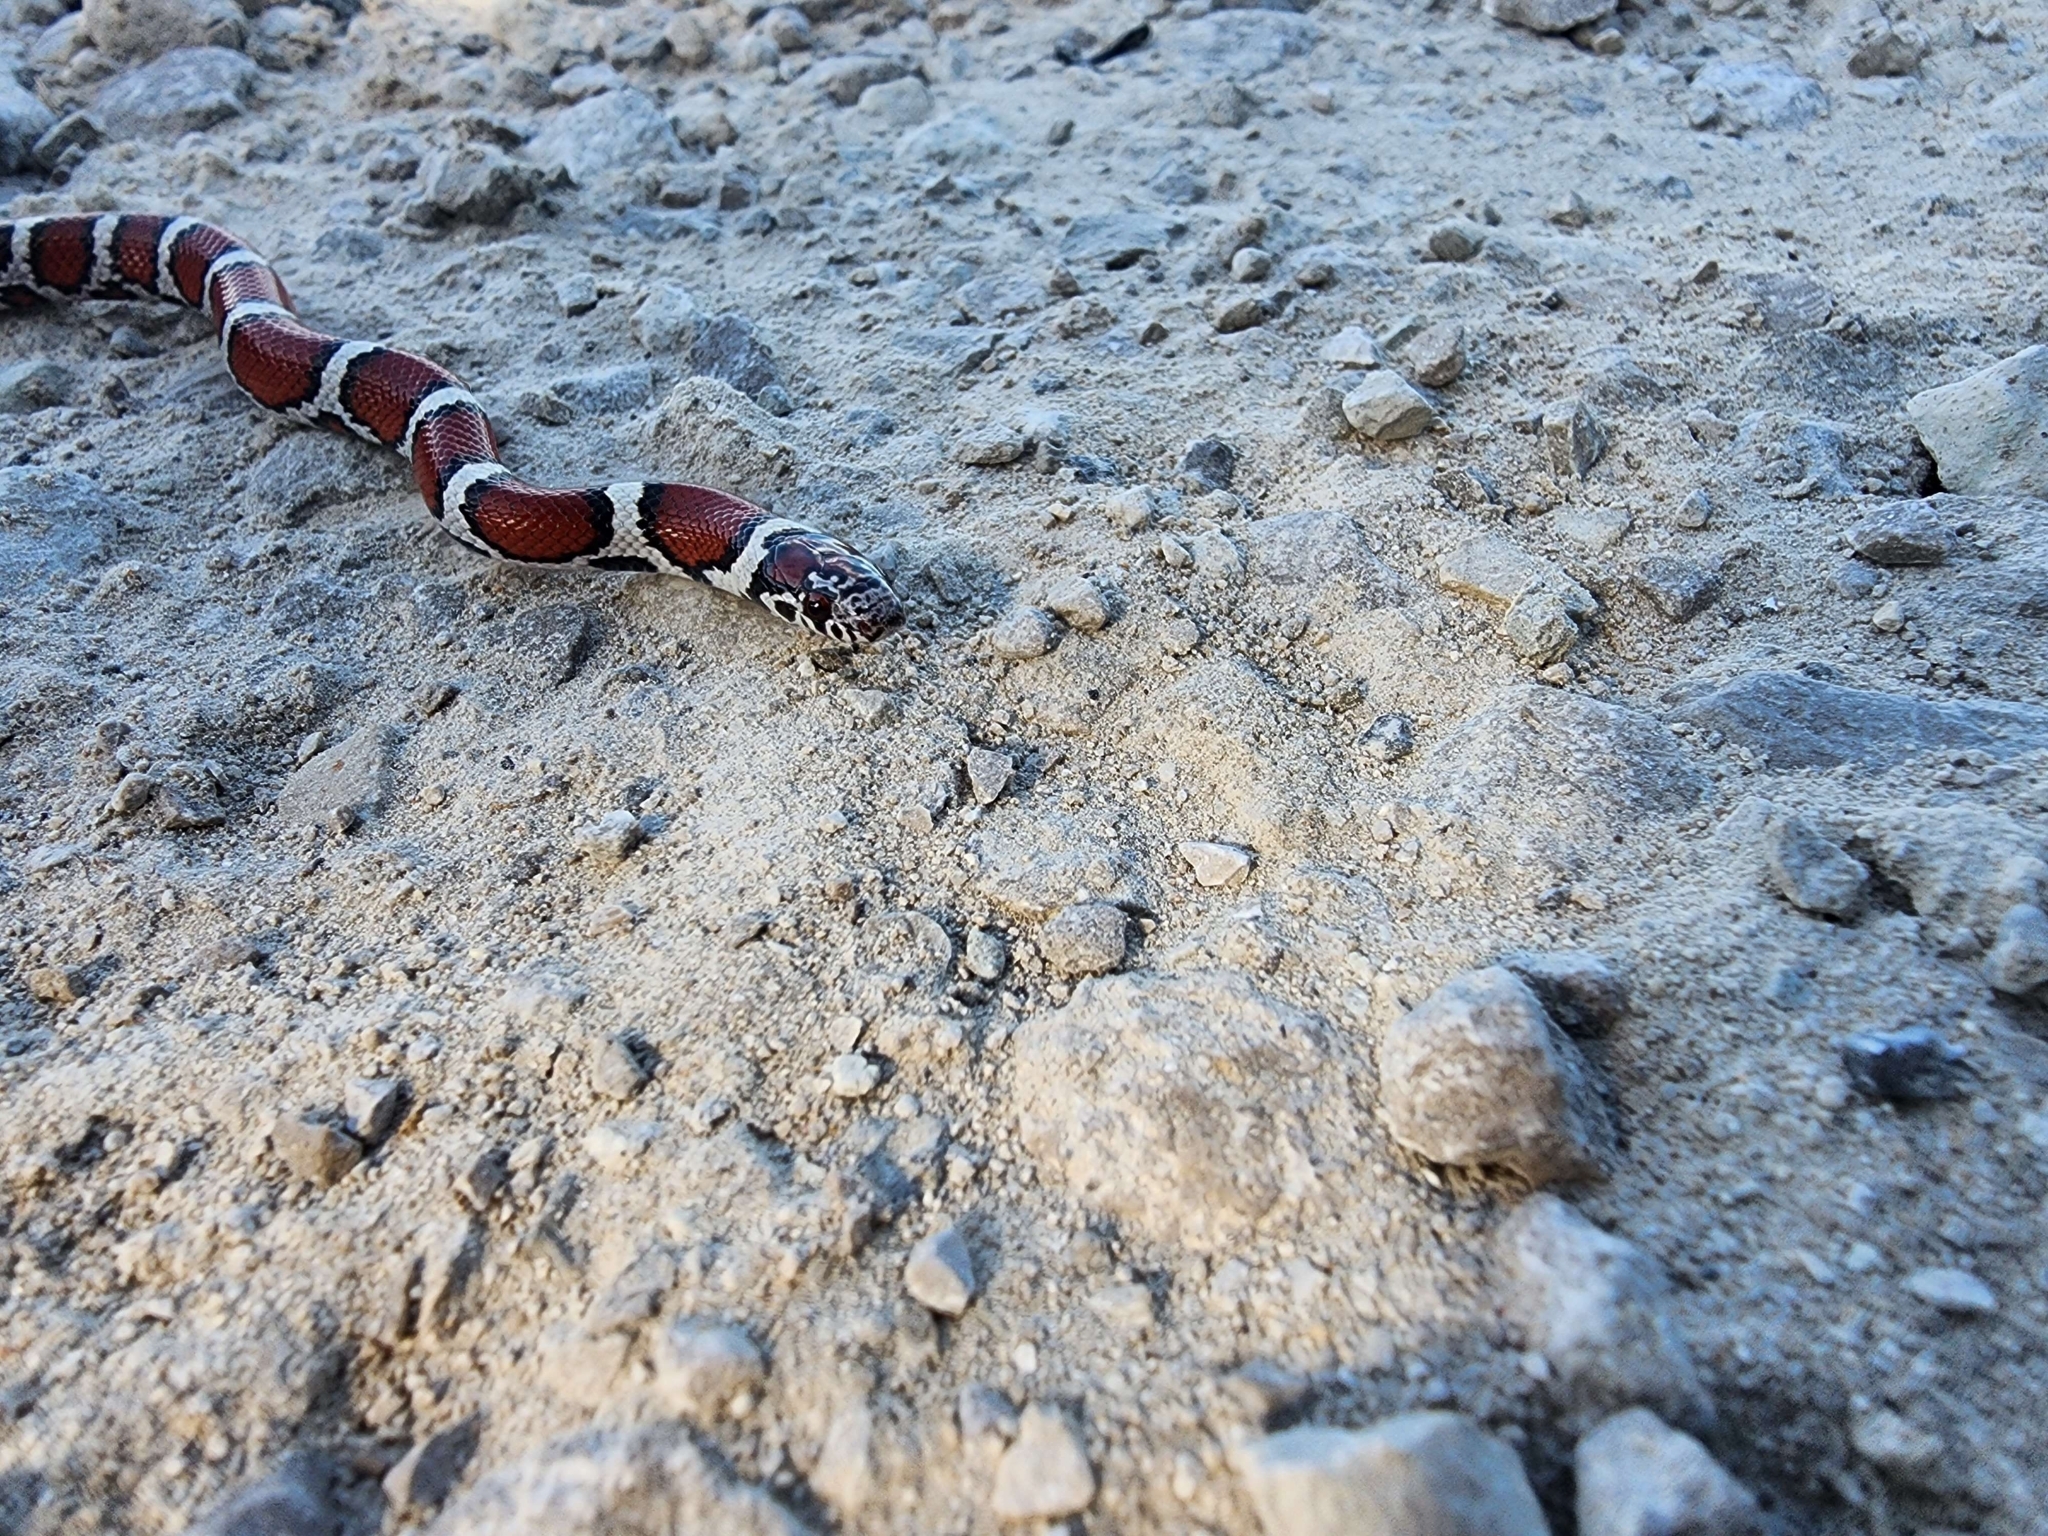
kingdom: Animalia
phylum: Chordata
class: Squamata
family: Colubridae
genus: Lampropeltis
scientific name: Lampropeltis triangulum
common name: Eastern milksnake
